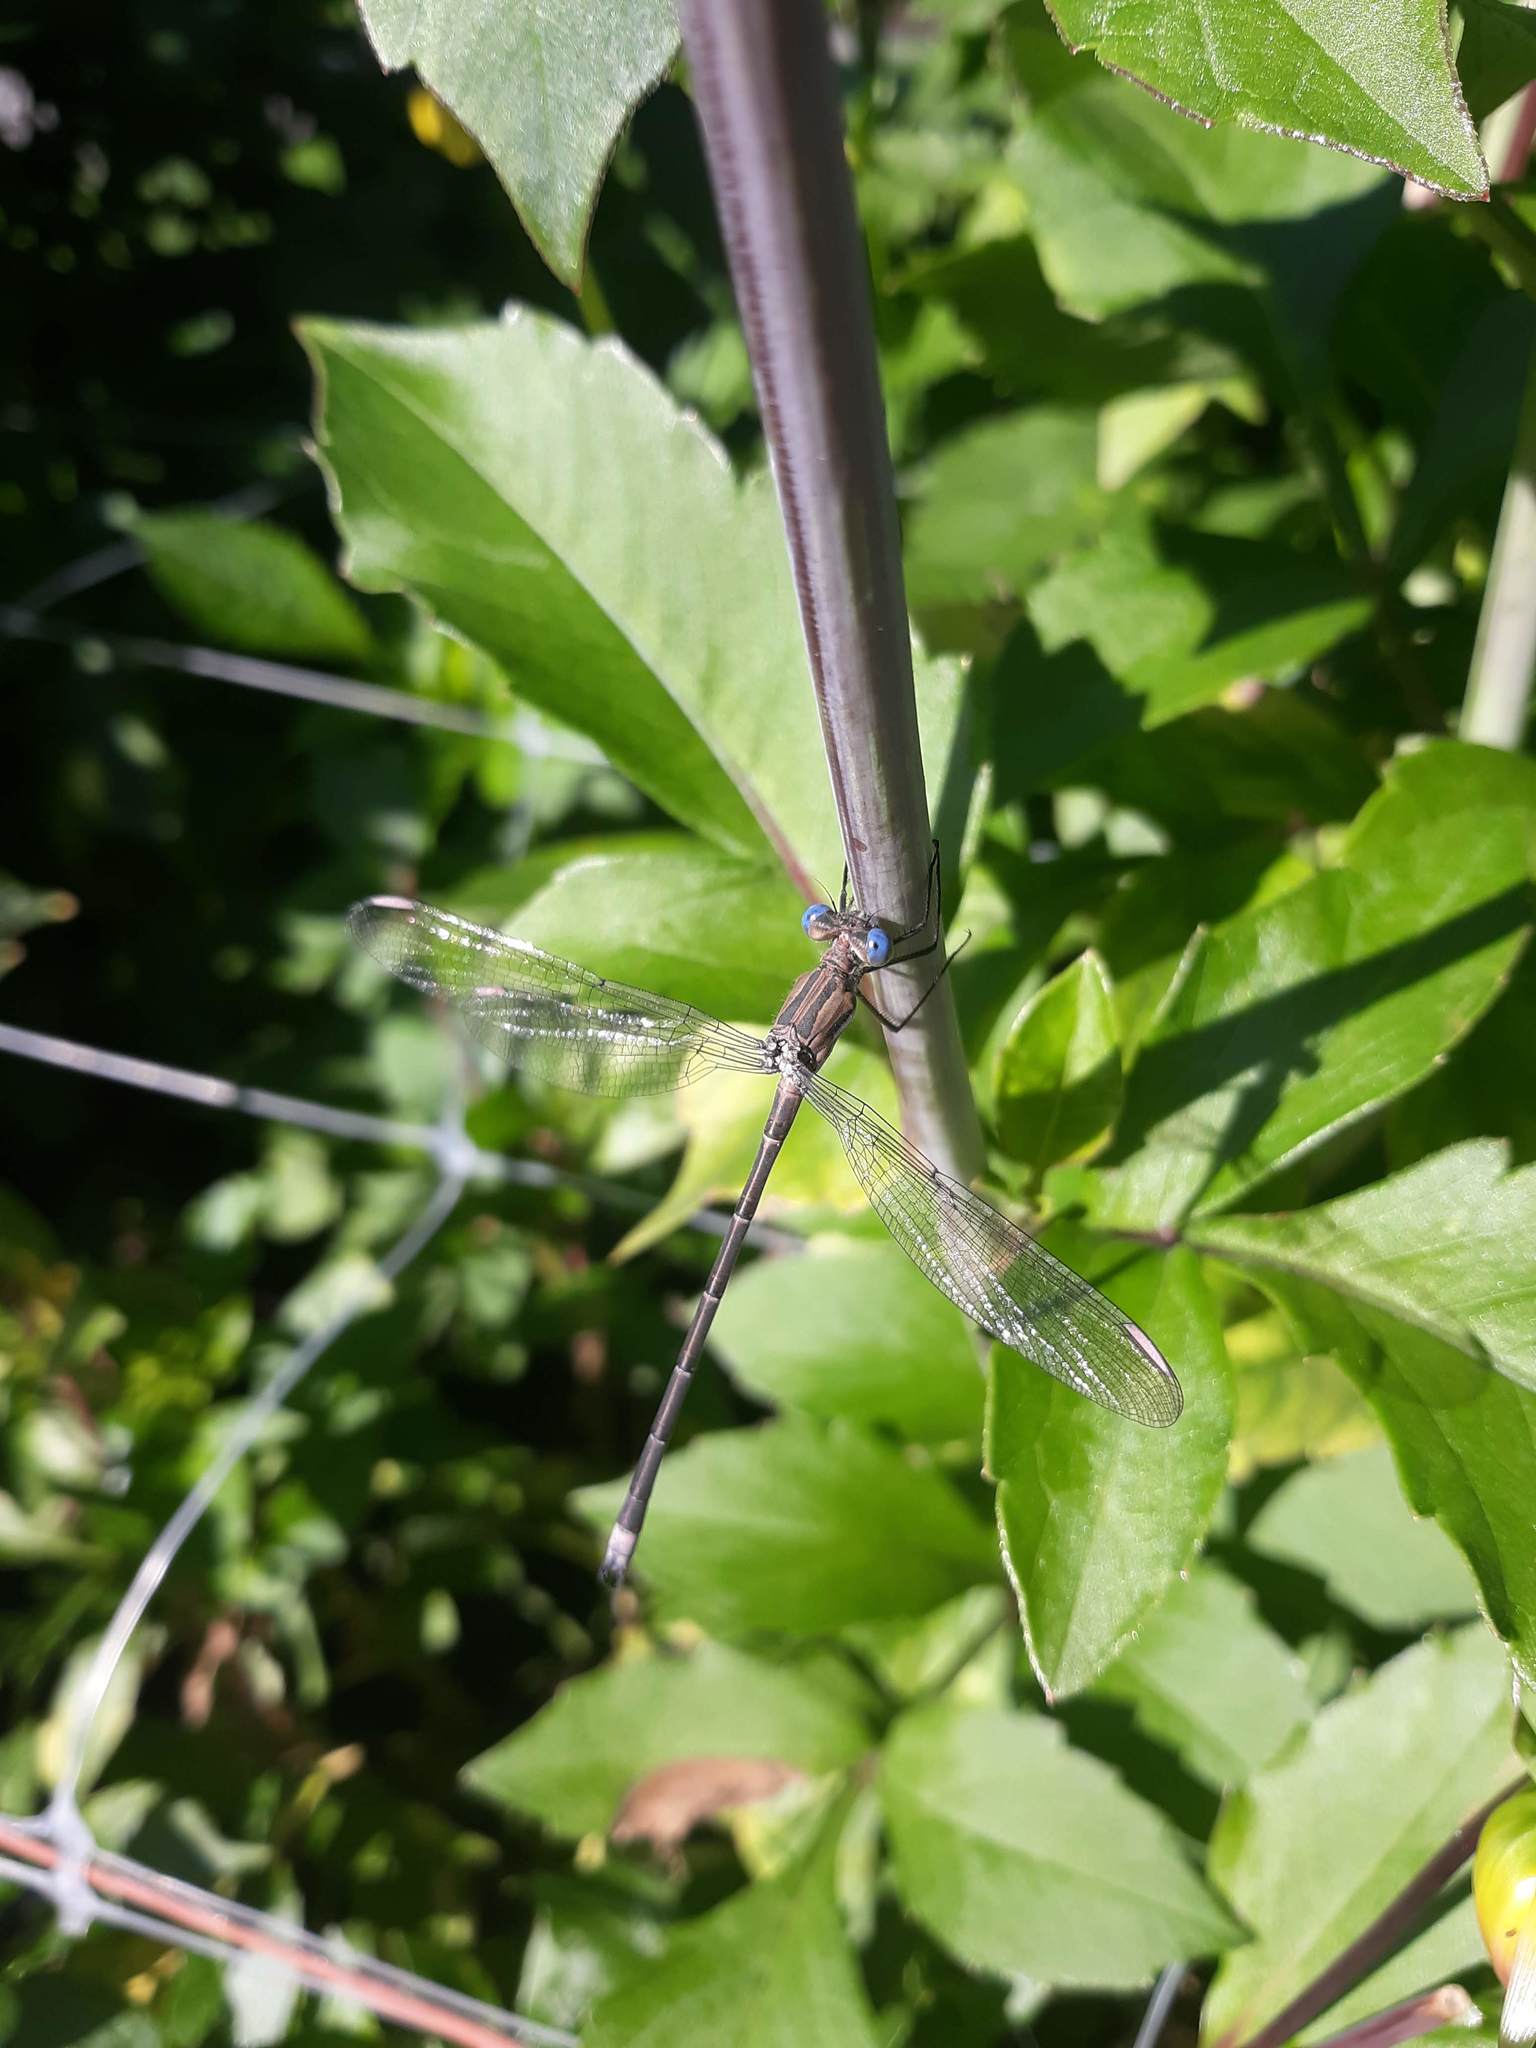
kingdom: Animalia
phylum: Arthropoda
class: Insecta
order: Odonata
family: Lestidae
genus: Archilestes
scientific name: Archilestes californicus
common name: California spreadwing
